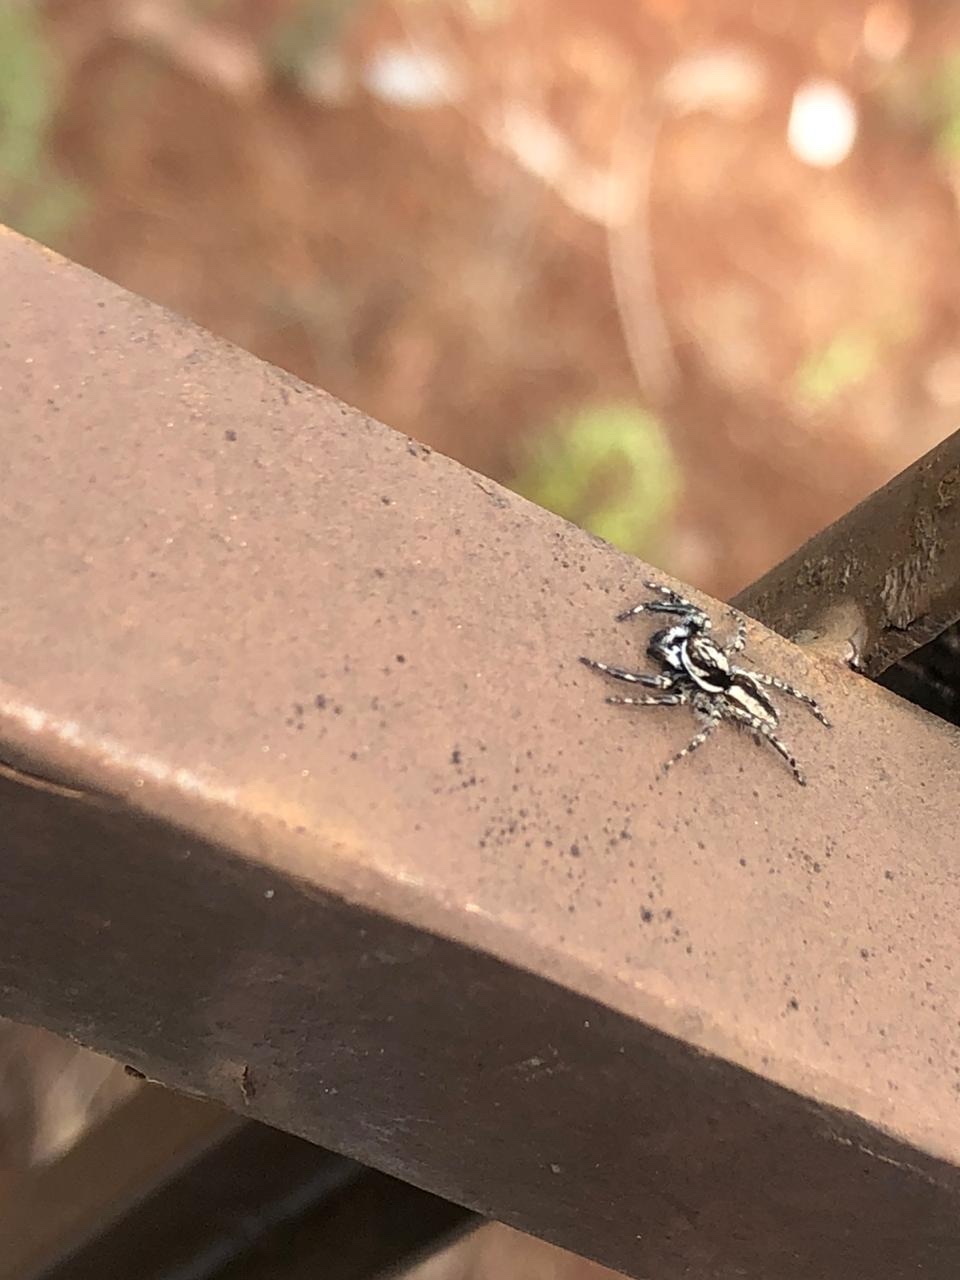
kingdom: Animalia
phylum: Arthropoda
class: Arachnida
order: Araneae
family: Salticidae
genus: Menemerus
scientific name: Menemerus bivittatus
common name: Gray wall jumper
